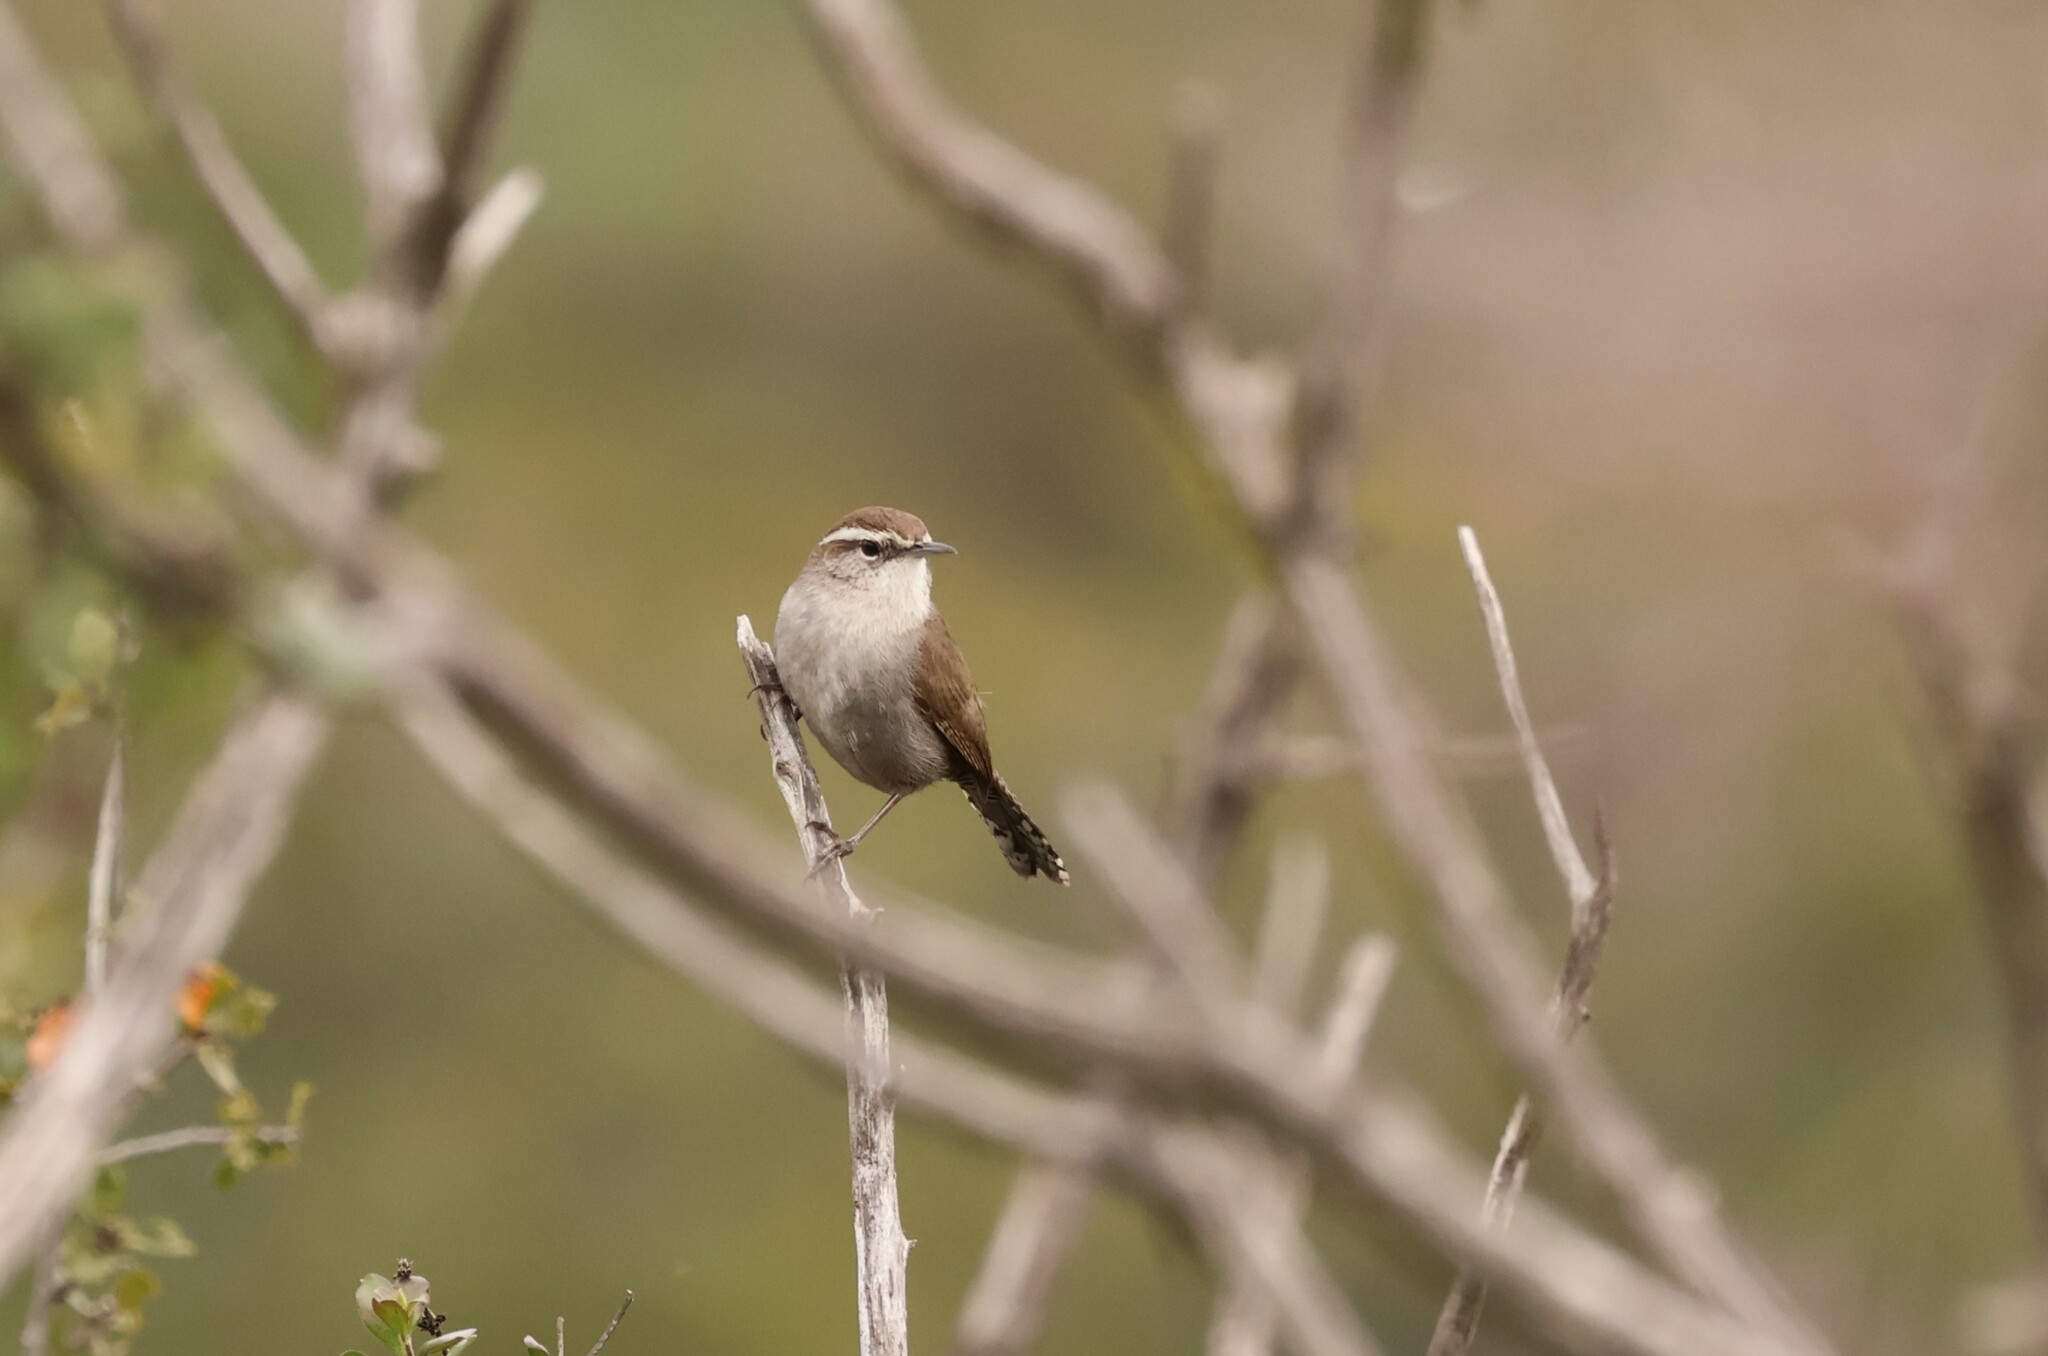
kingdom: Animalia
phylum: Chordata
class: Aves
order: Passeriformes
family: Troglodytidae
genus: Thryomanes
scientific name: Thryomanes bewickii
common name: Bewick's wren
